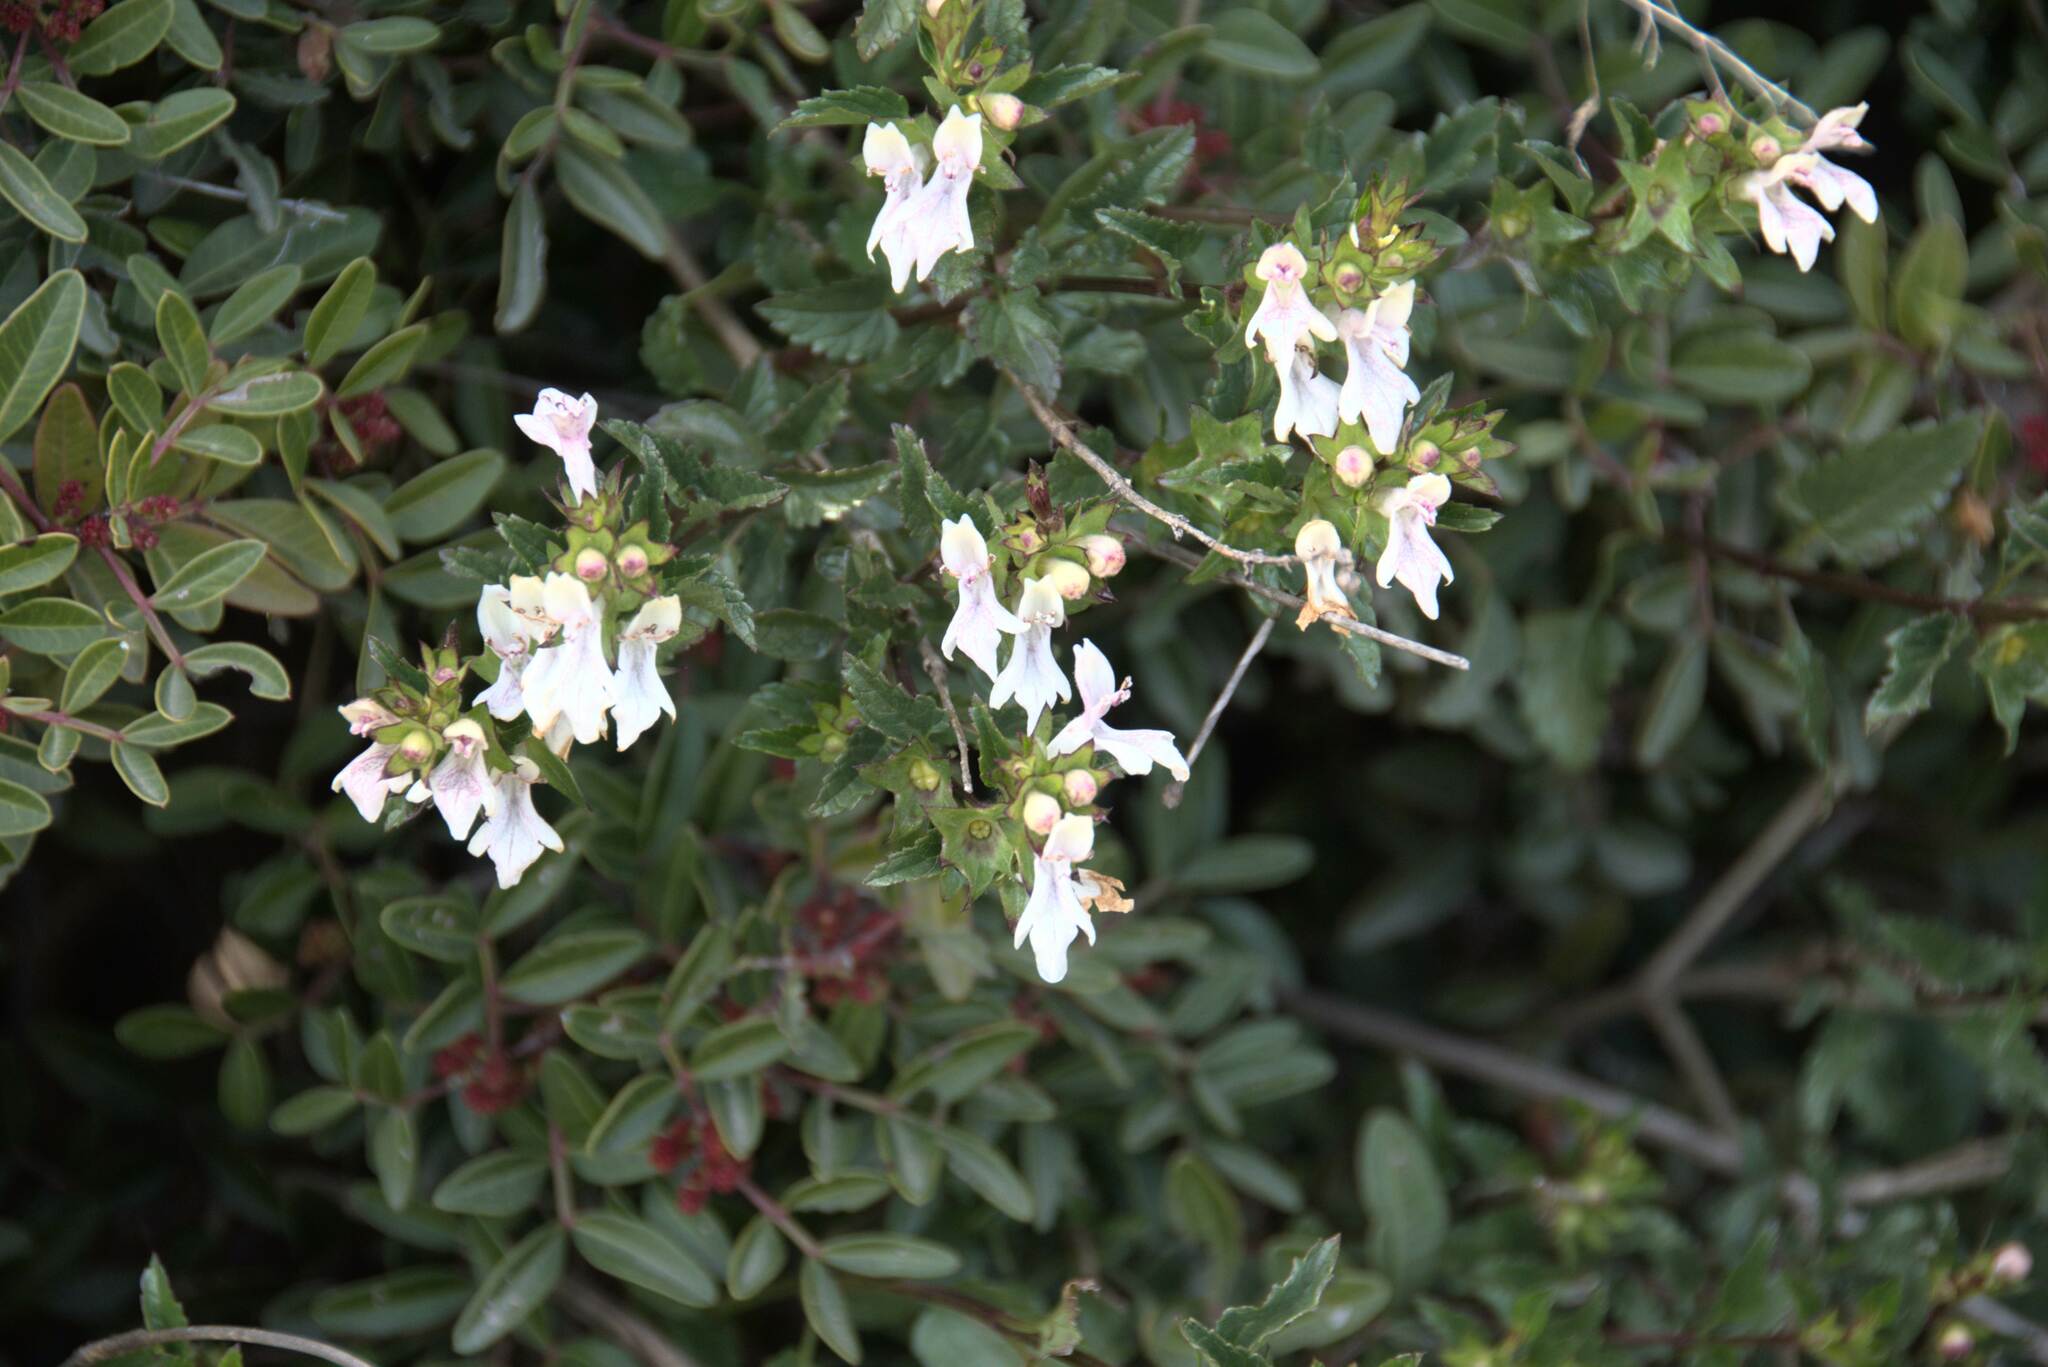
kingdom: Plantae
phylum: Tracheophyta
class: Magnoliopsida
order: Lamiales
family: Lamiaceae
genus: Prasium
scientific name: Prasium majus
